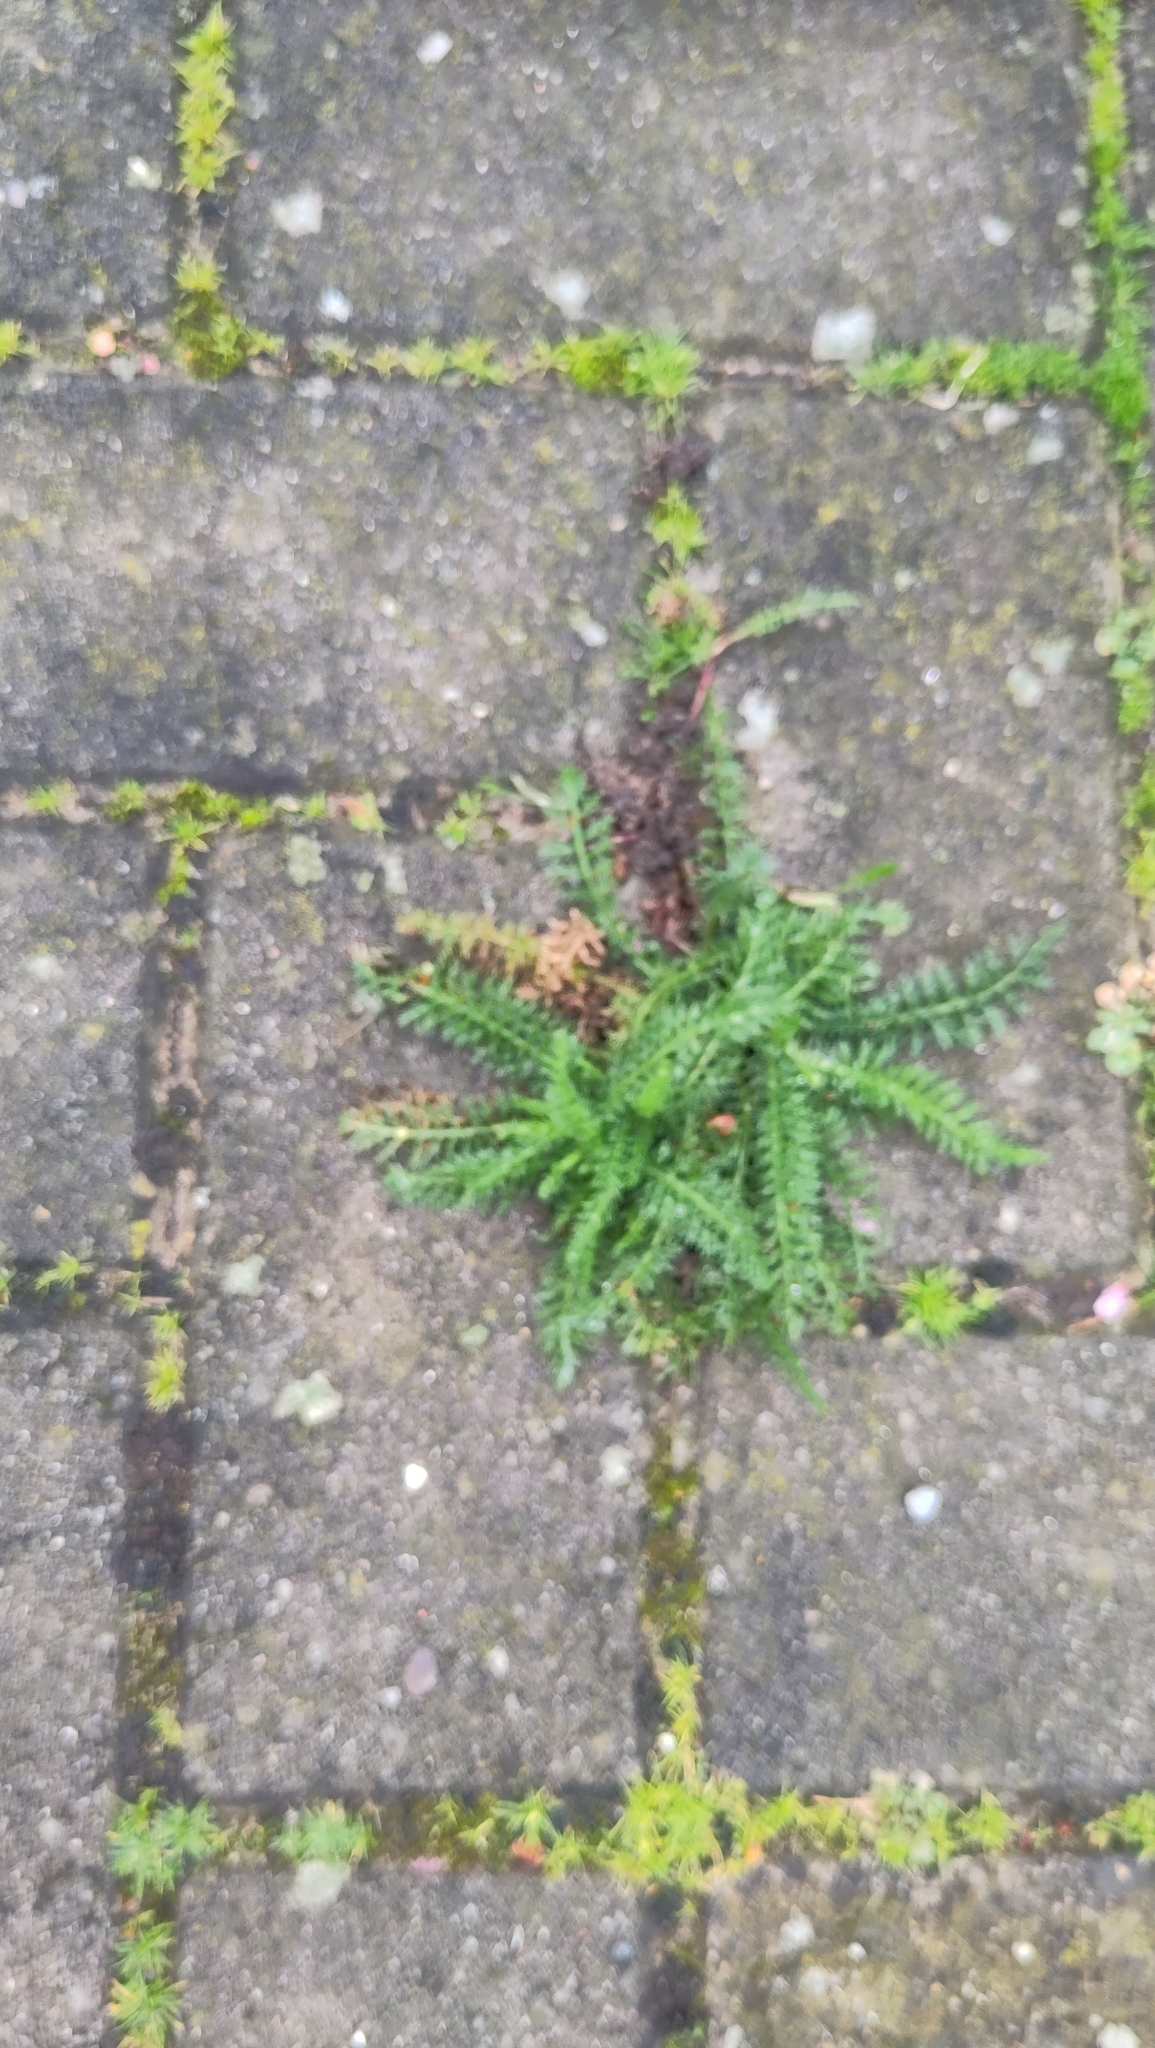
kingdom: Plantae
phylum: Tracheophyta
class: Magnoliopsida
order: Asterales
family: Asteraceae
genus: Achillea
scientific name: Achillea millefolium
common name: Yarrow
